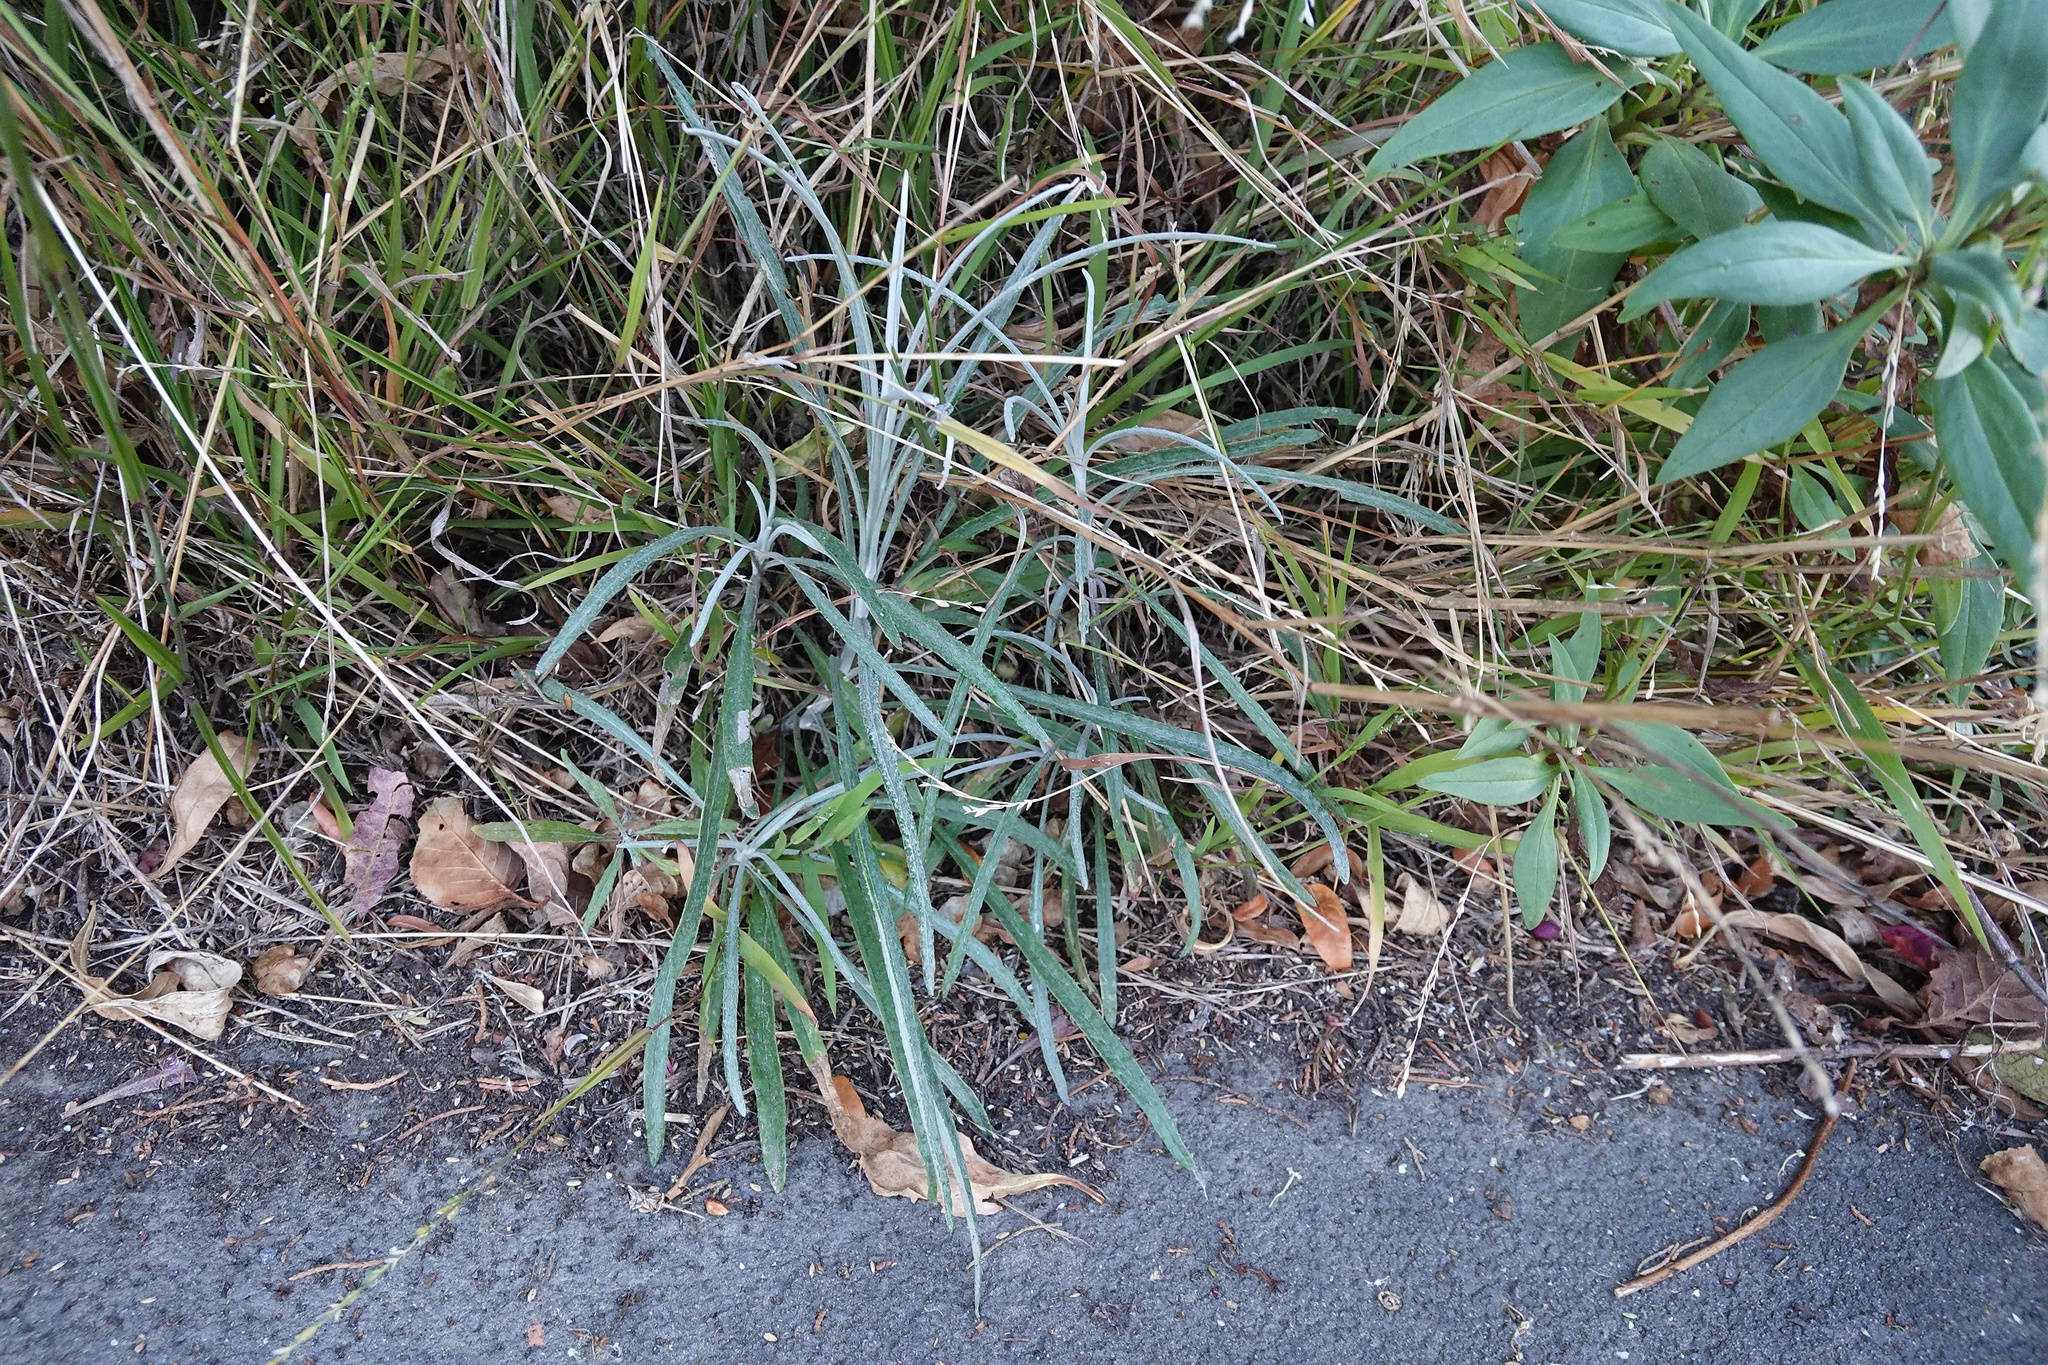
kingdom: Plantae
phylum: Tracheophyta
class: Magnoliopsida
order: Asterales
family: Asteraceae
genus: Senecio
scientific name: Senecio quadridentatus
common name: Cotton fireweed
